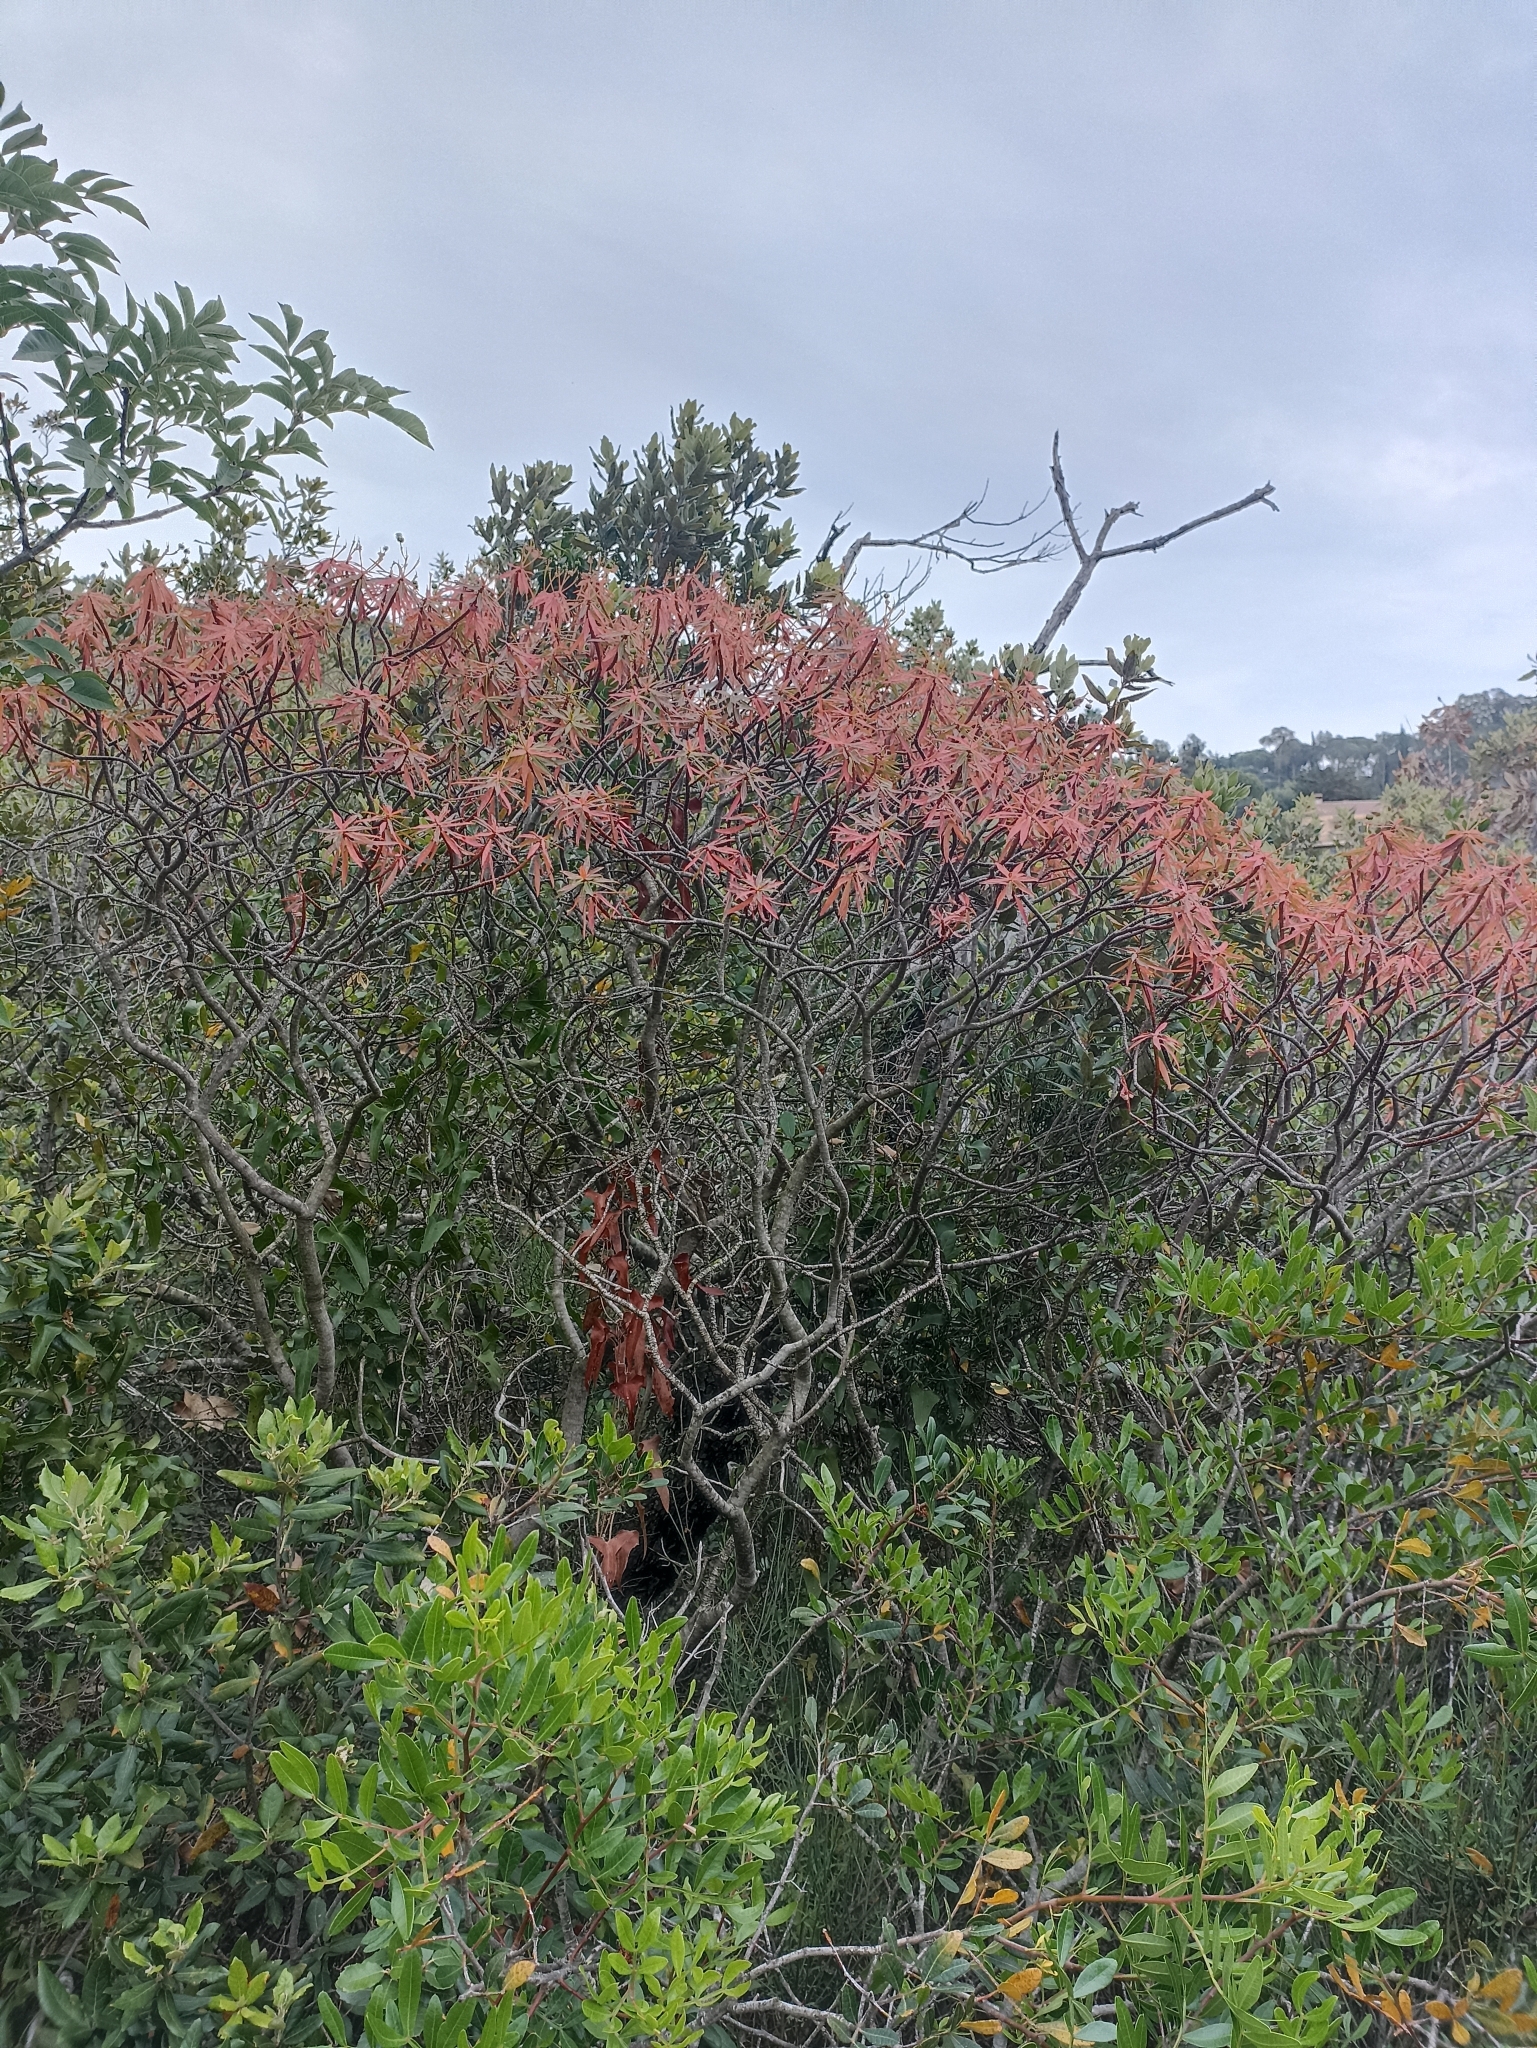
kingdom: Plantae
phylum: Tracheophyta
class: Magnoliopsida
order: Malpighiales
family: Euphorbiaceae
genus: Euphorbia
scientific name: Euphorbia dendroides
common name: Tree spurge
